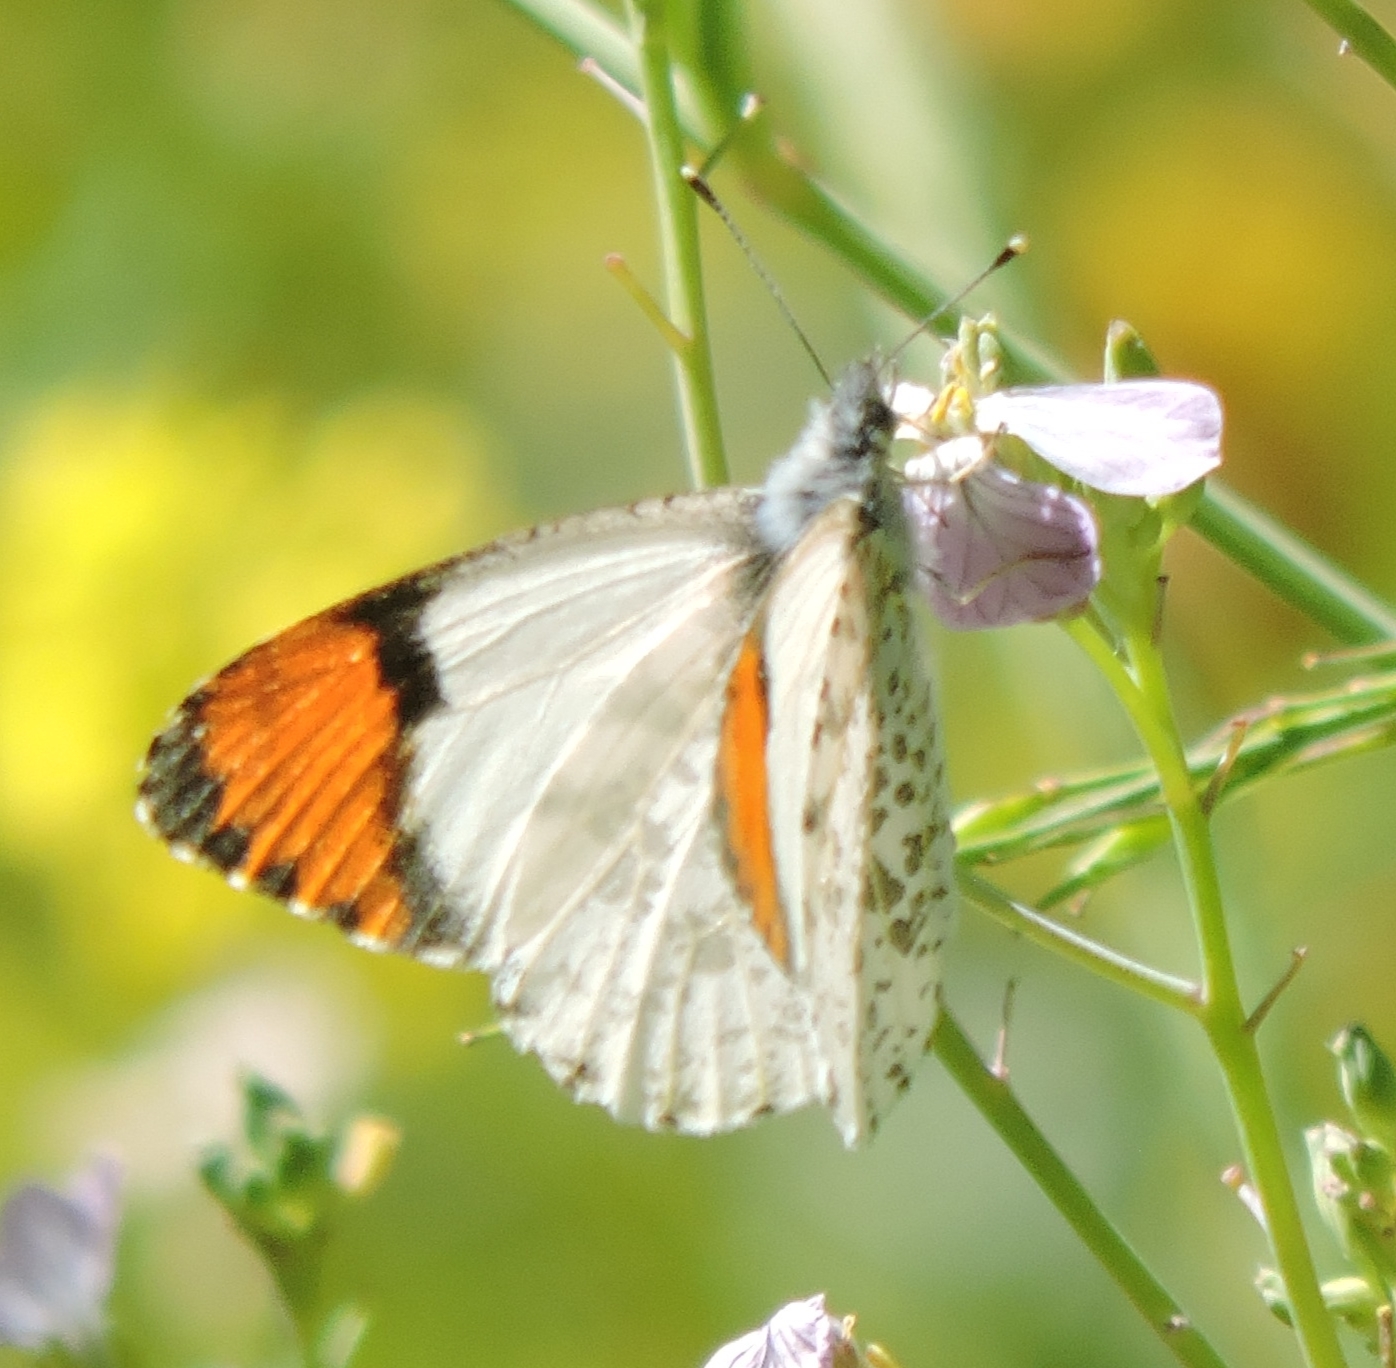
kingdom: Animalia
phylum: Arthropoda
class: Insecta
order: Lepidoptera
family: Pieridae
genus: Anthocharis
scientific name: Anthocharis sara
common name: Sara's orangetip
